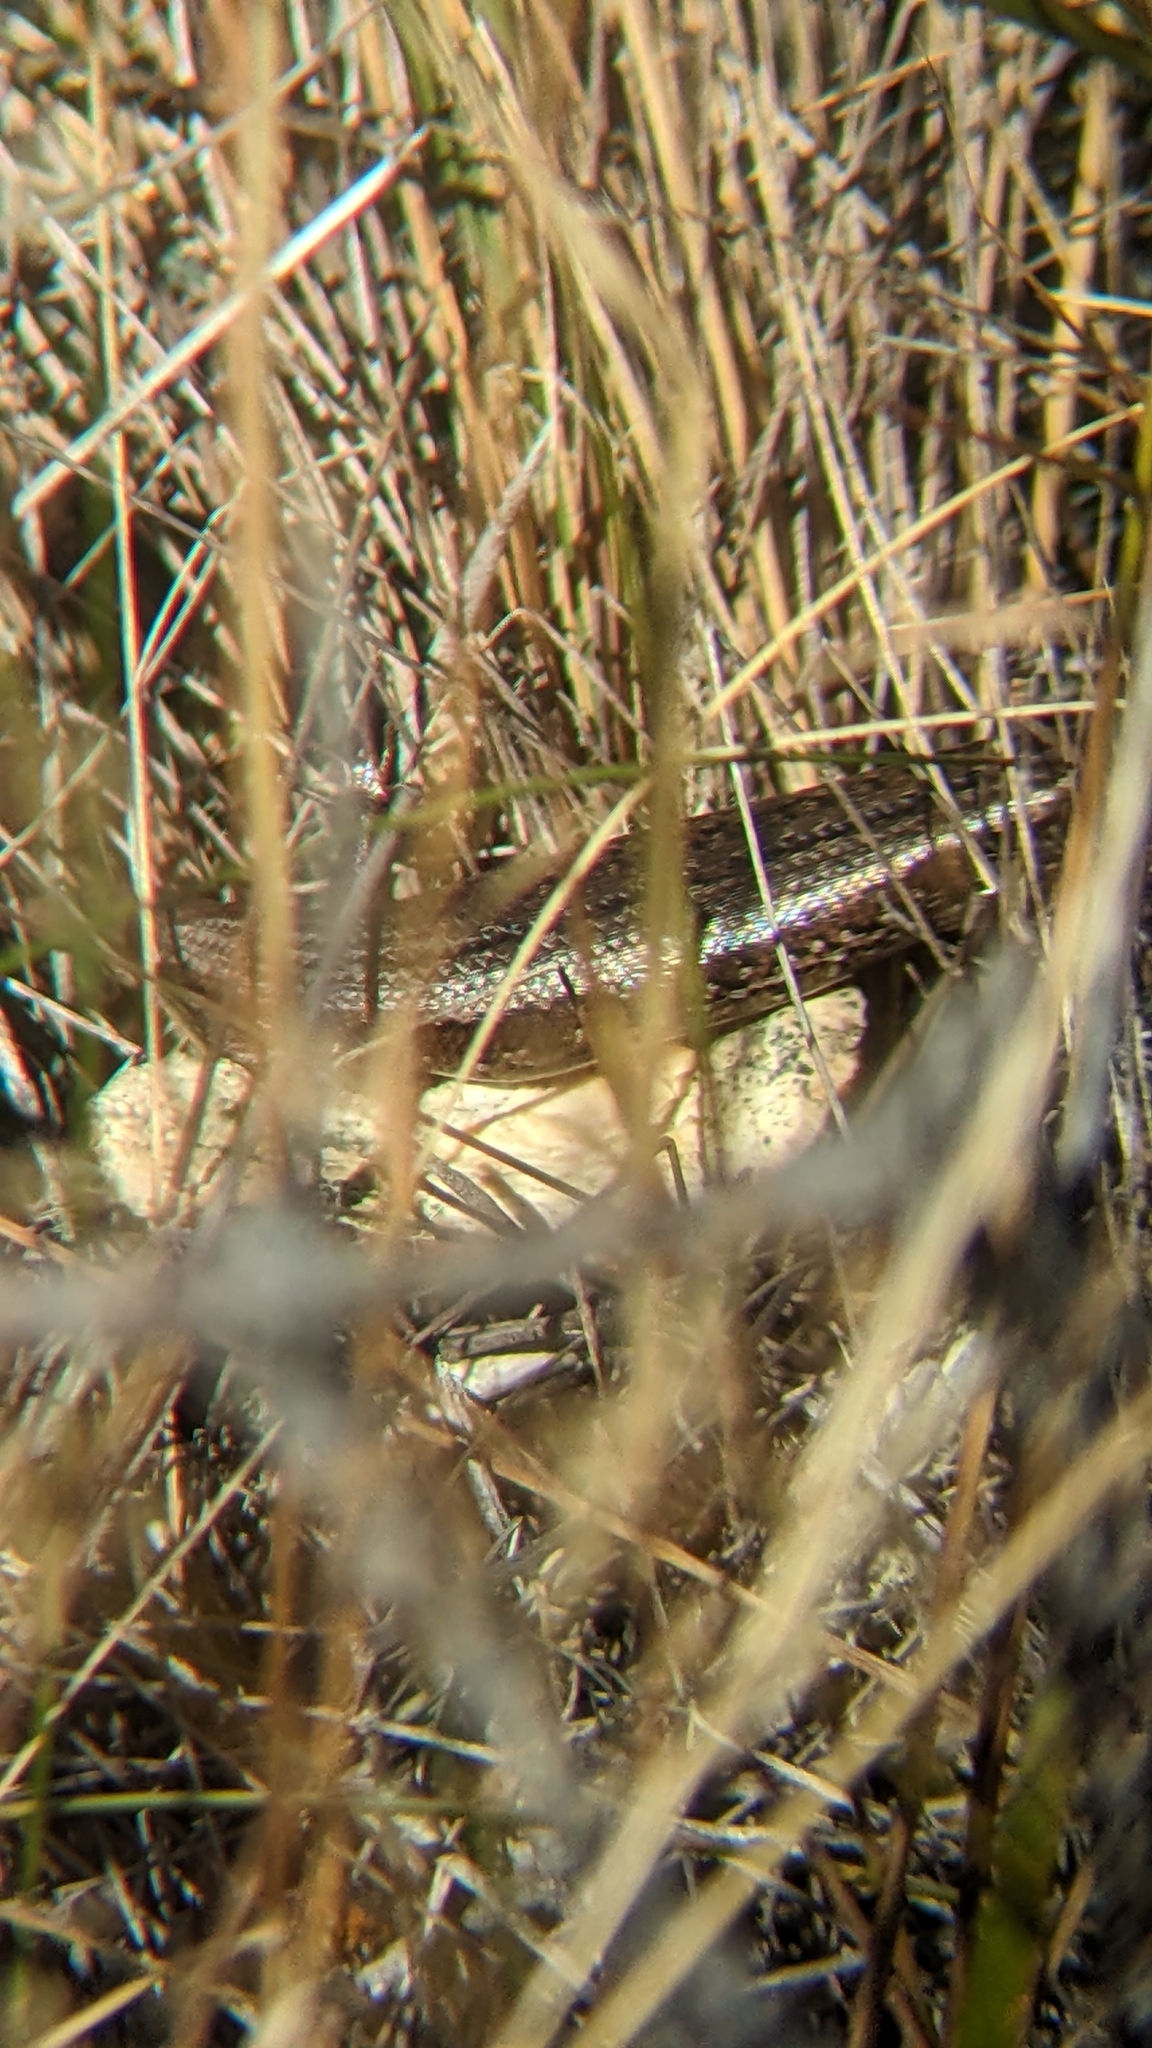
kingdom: Animalia
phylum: Chordata
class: Squamata
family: Scincidae
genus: Oligosoma
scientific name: Oligosoma inconspicuum
